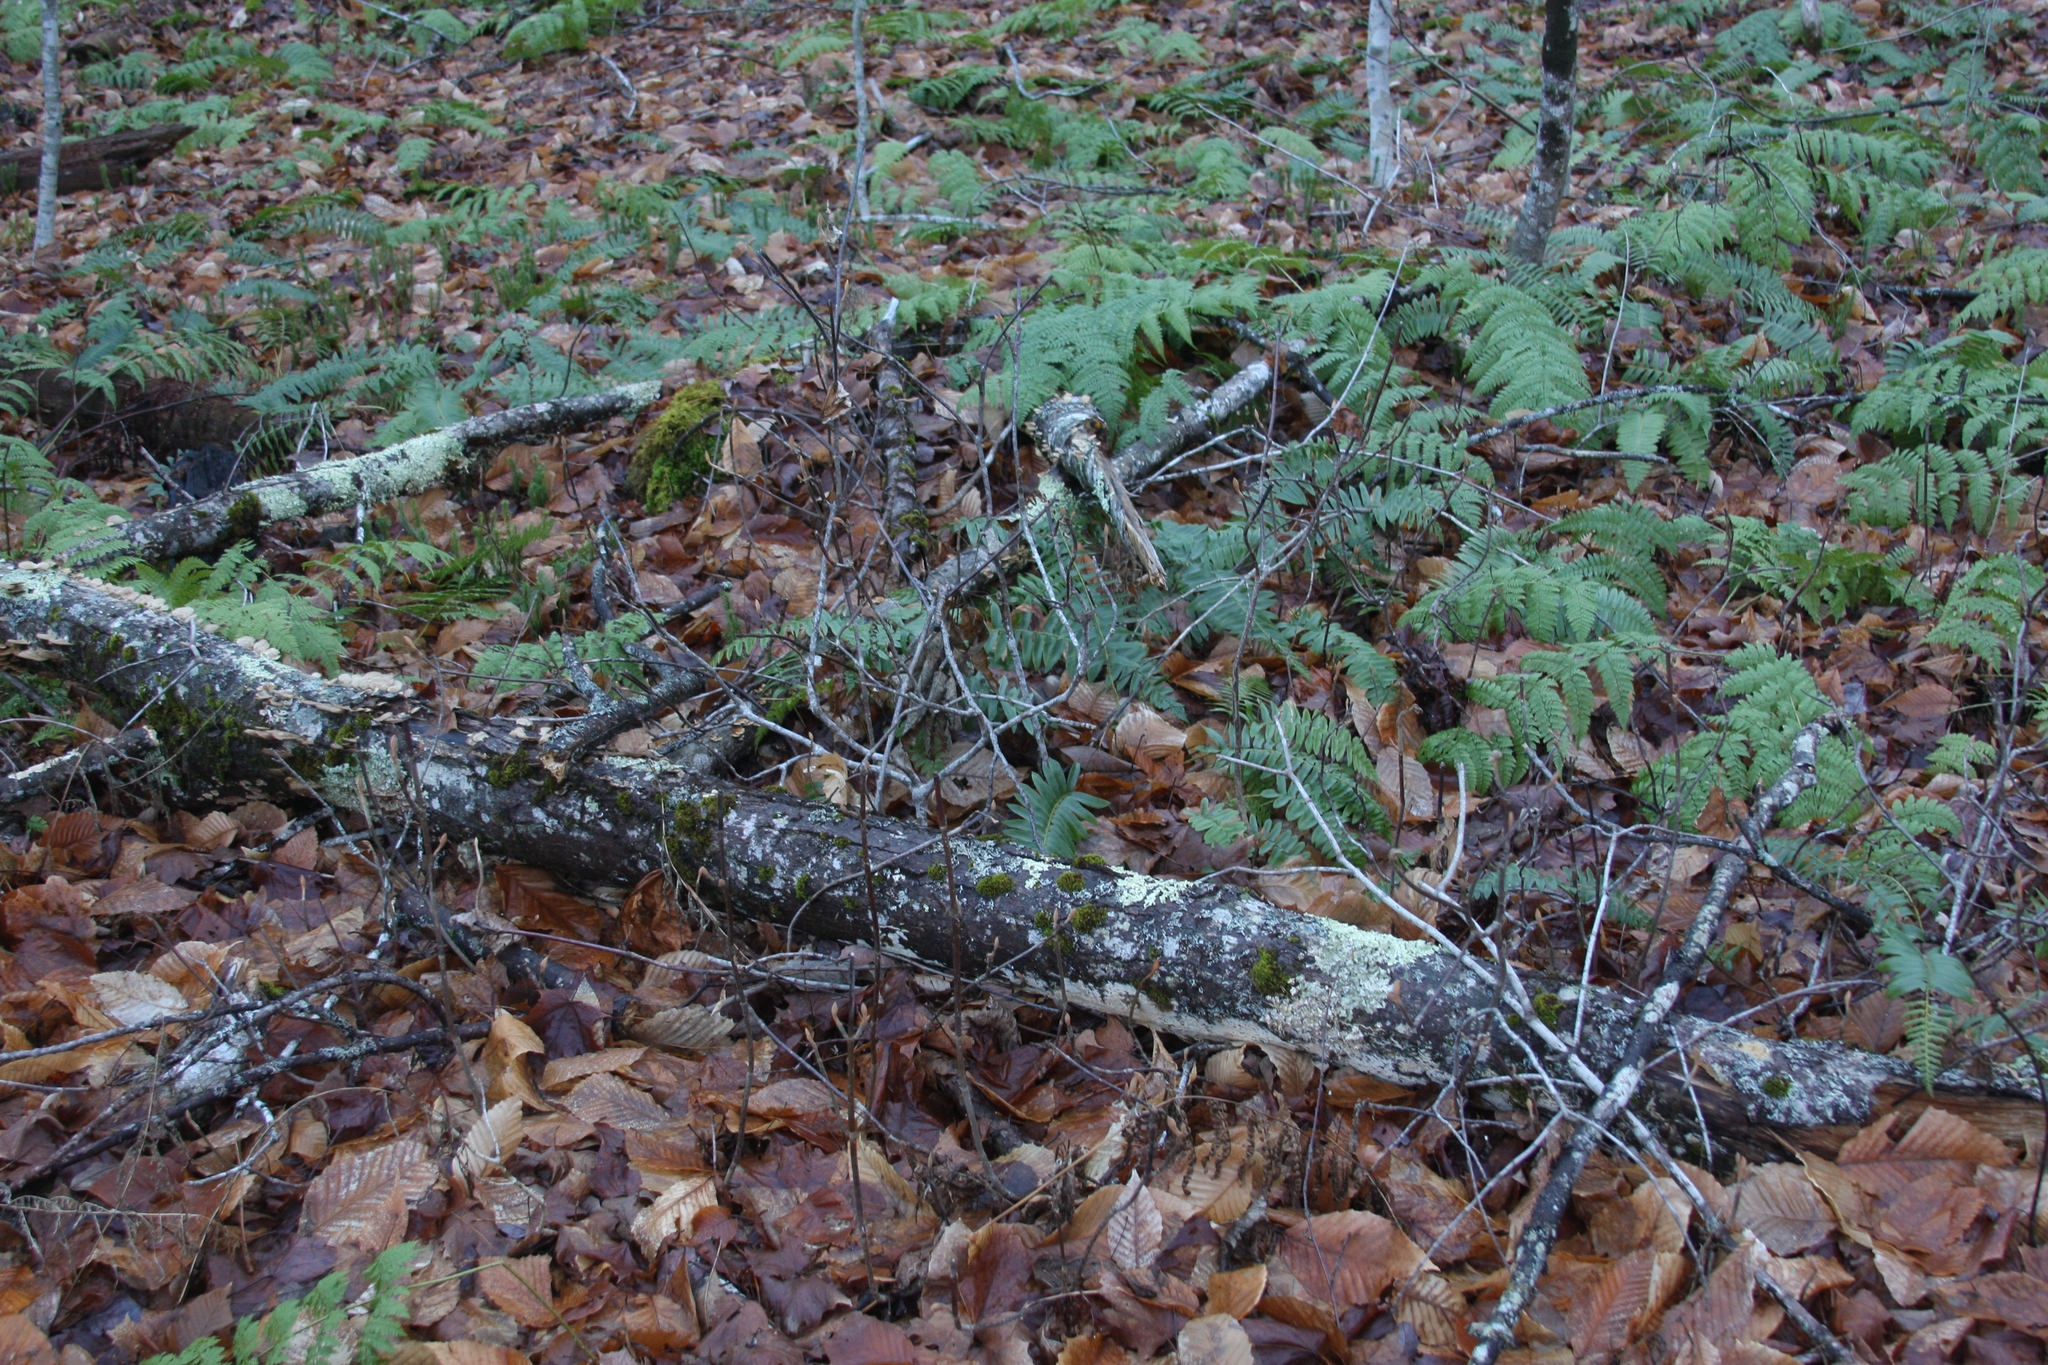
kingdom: Plantae
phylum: Tracheophyta
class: Magnoliopsida
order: Dipsacales
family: Viburnaceae
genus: Viburnum
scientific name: Viburnum lantanoides
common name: Hobblebush
